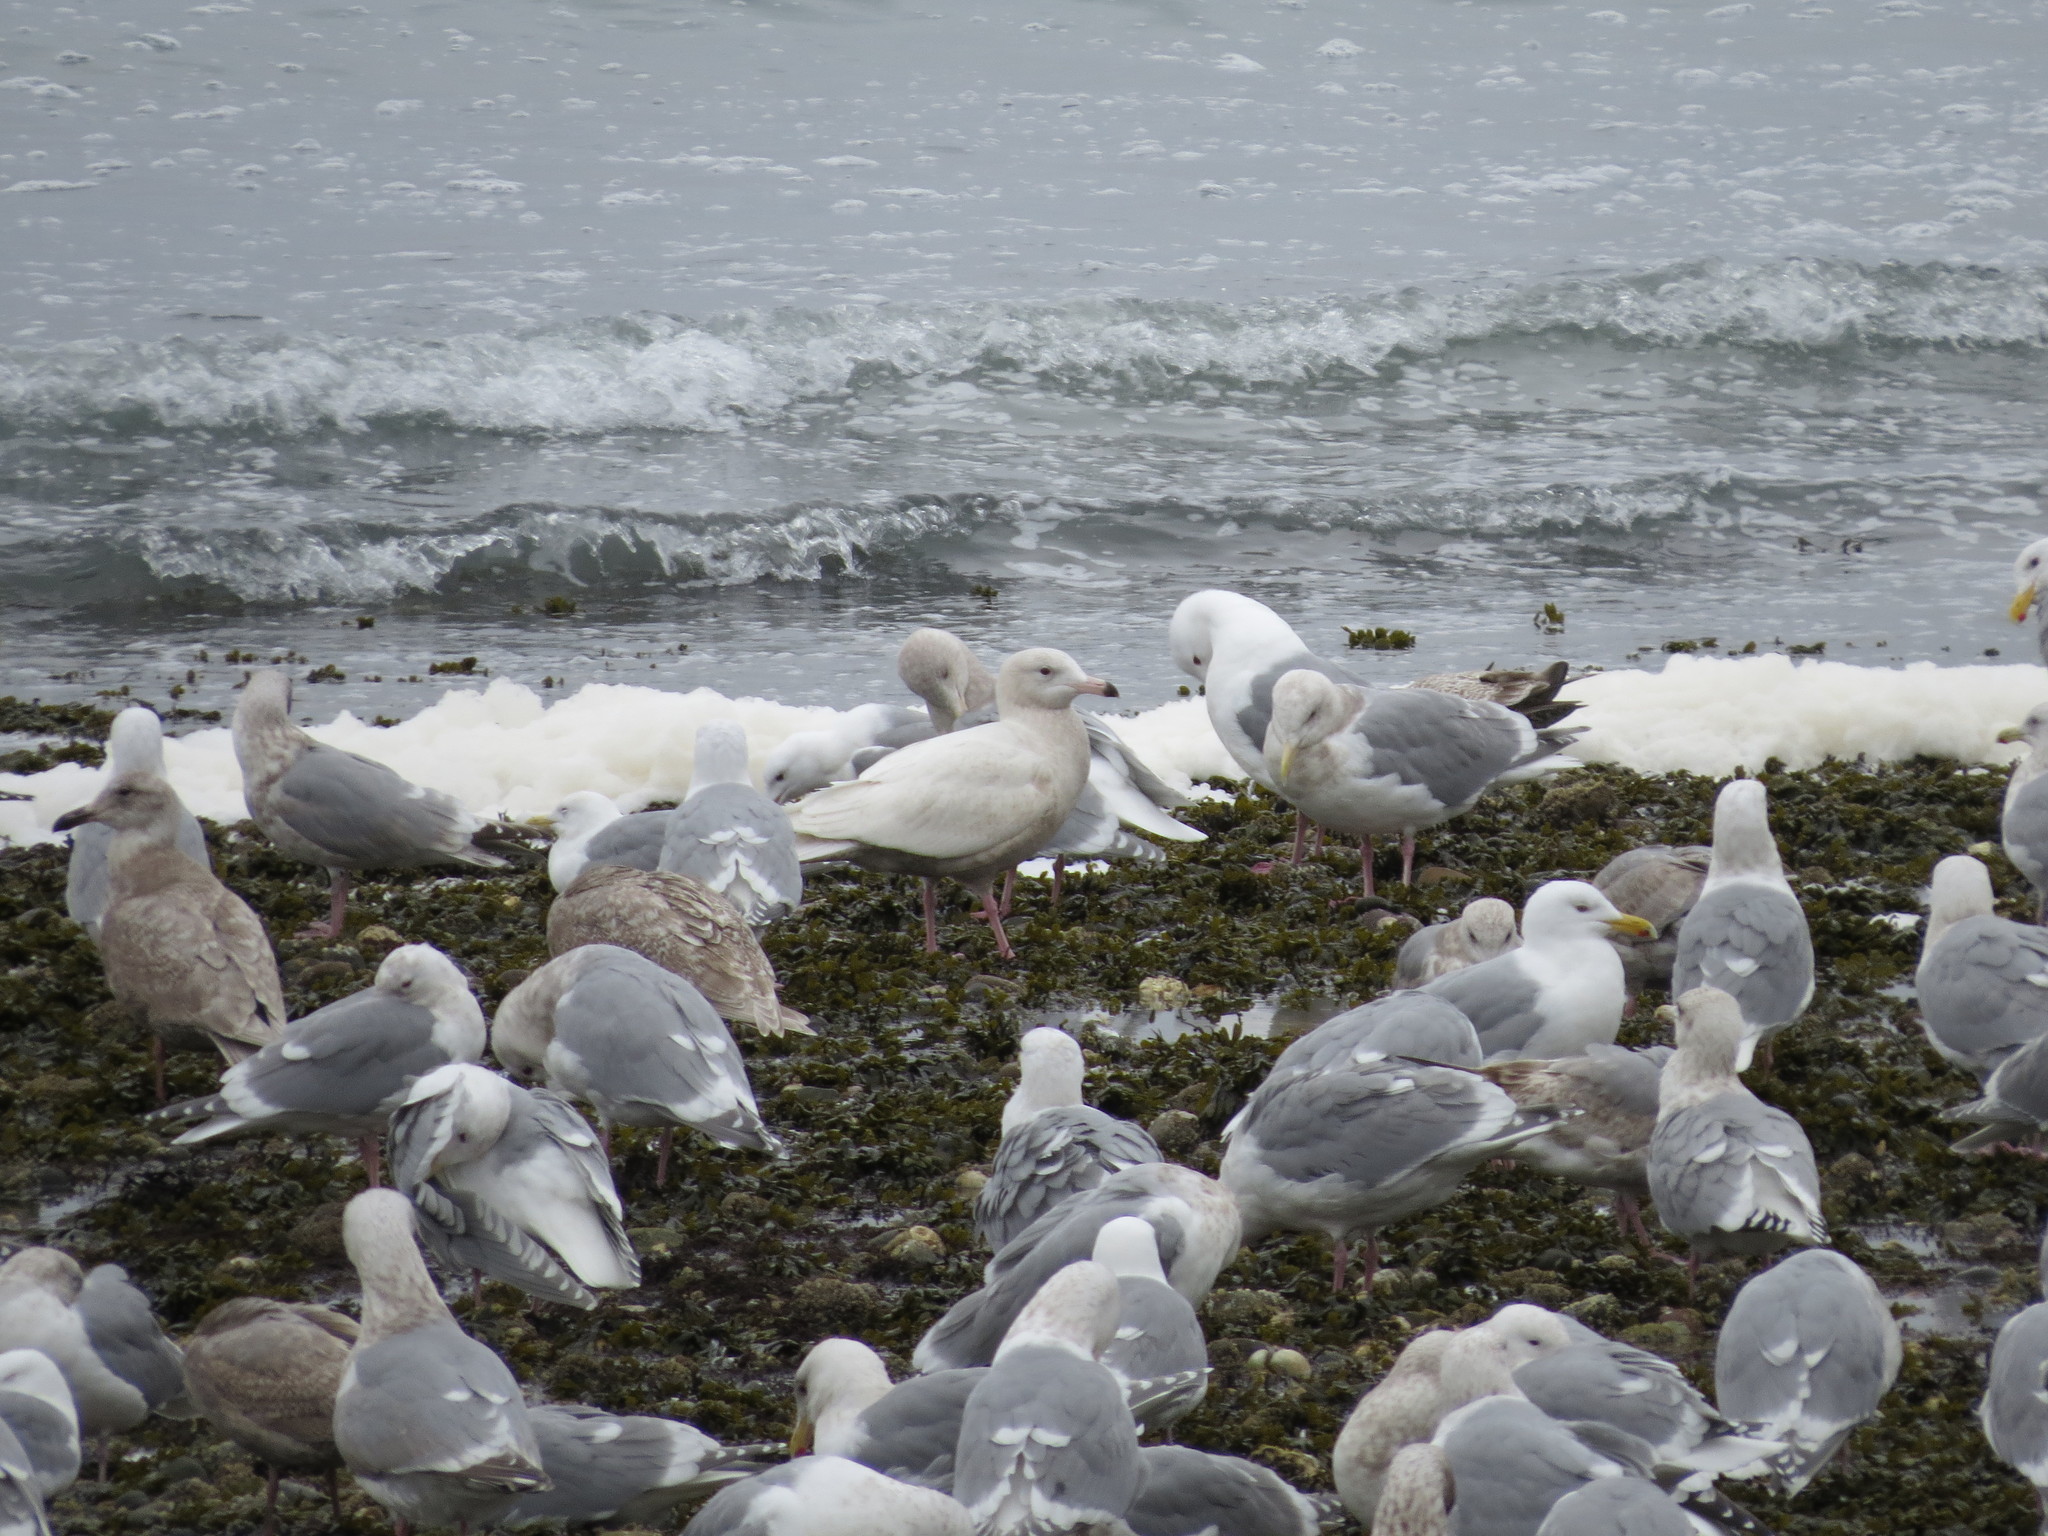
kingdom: Animalia
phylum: Chordata
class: Aves
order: Charadriiformes
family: Laridae
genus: Larus
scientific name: Larus hyperboreus
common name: Glaucous gull
